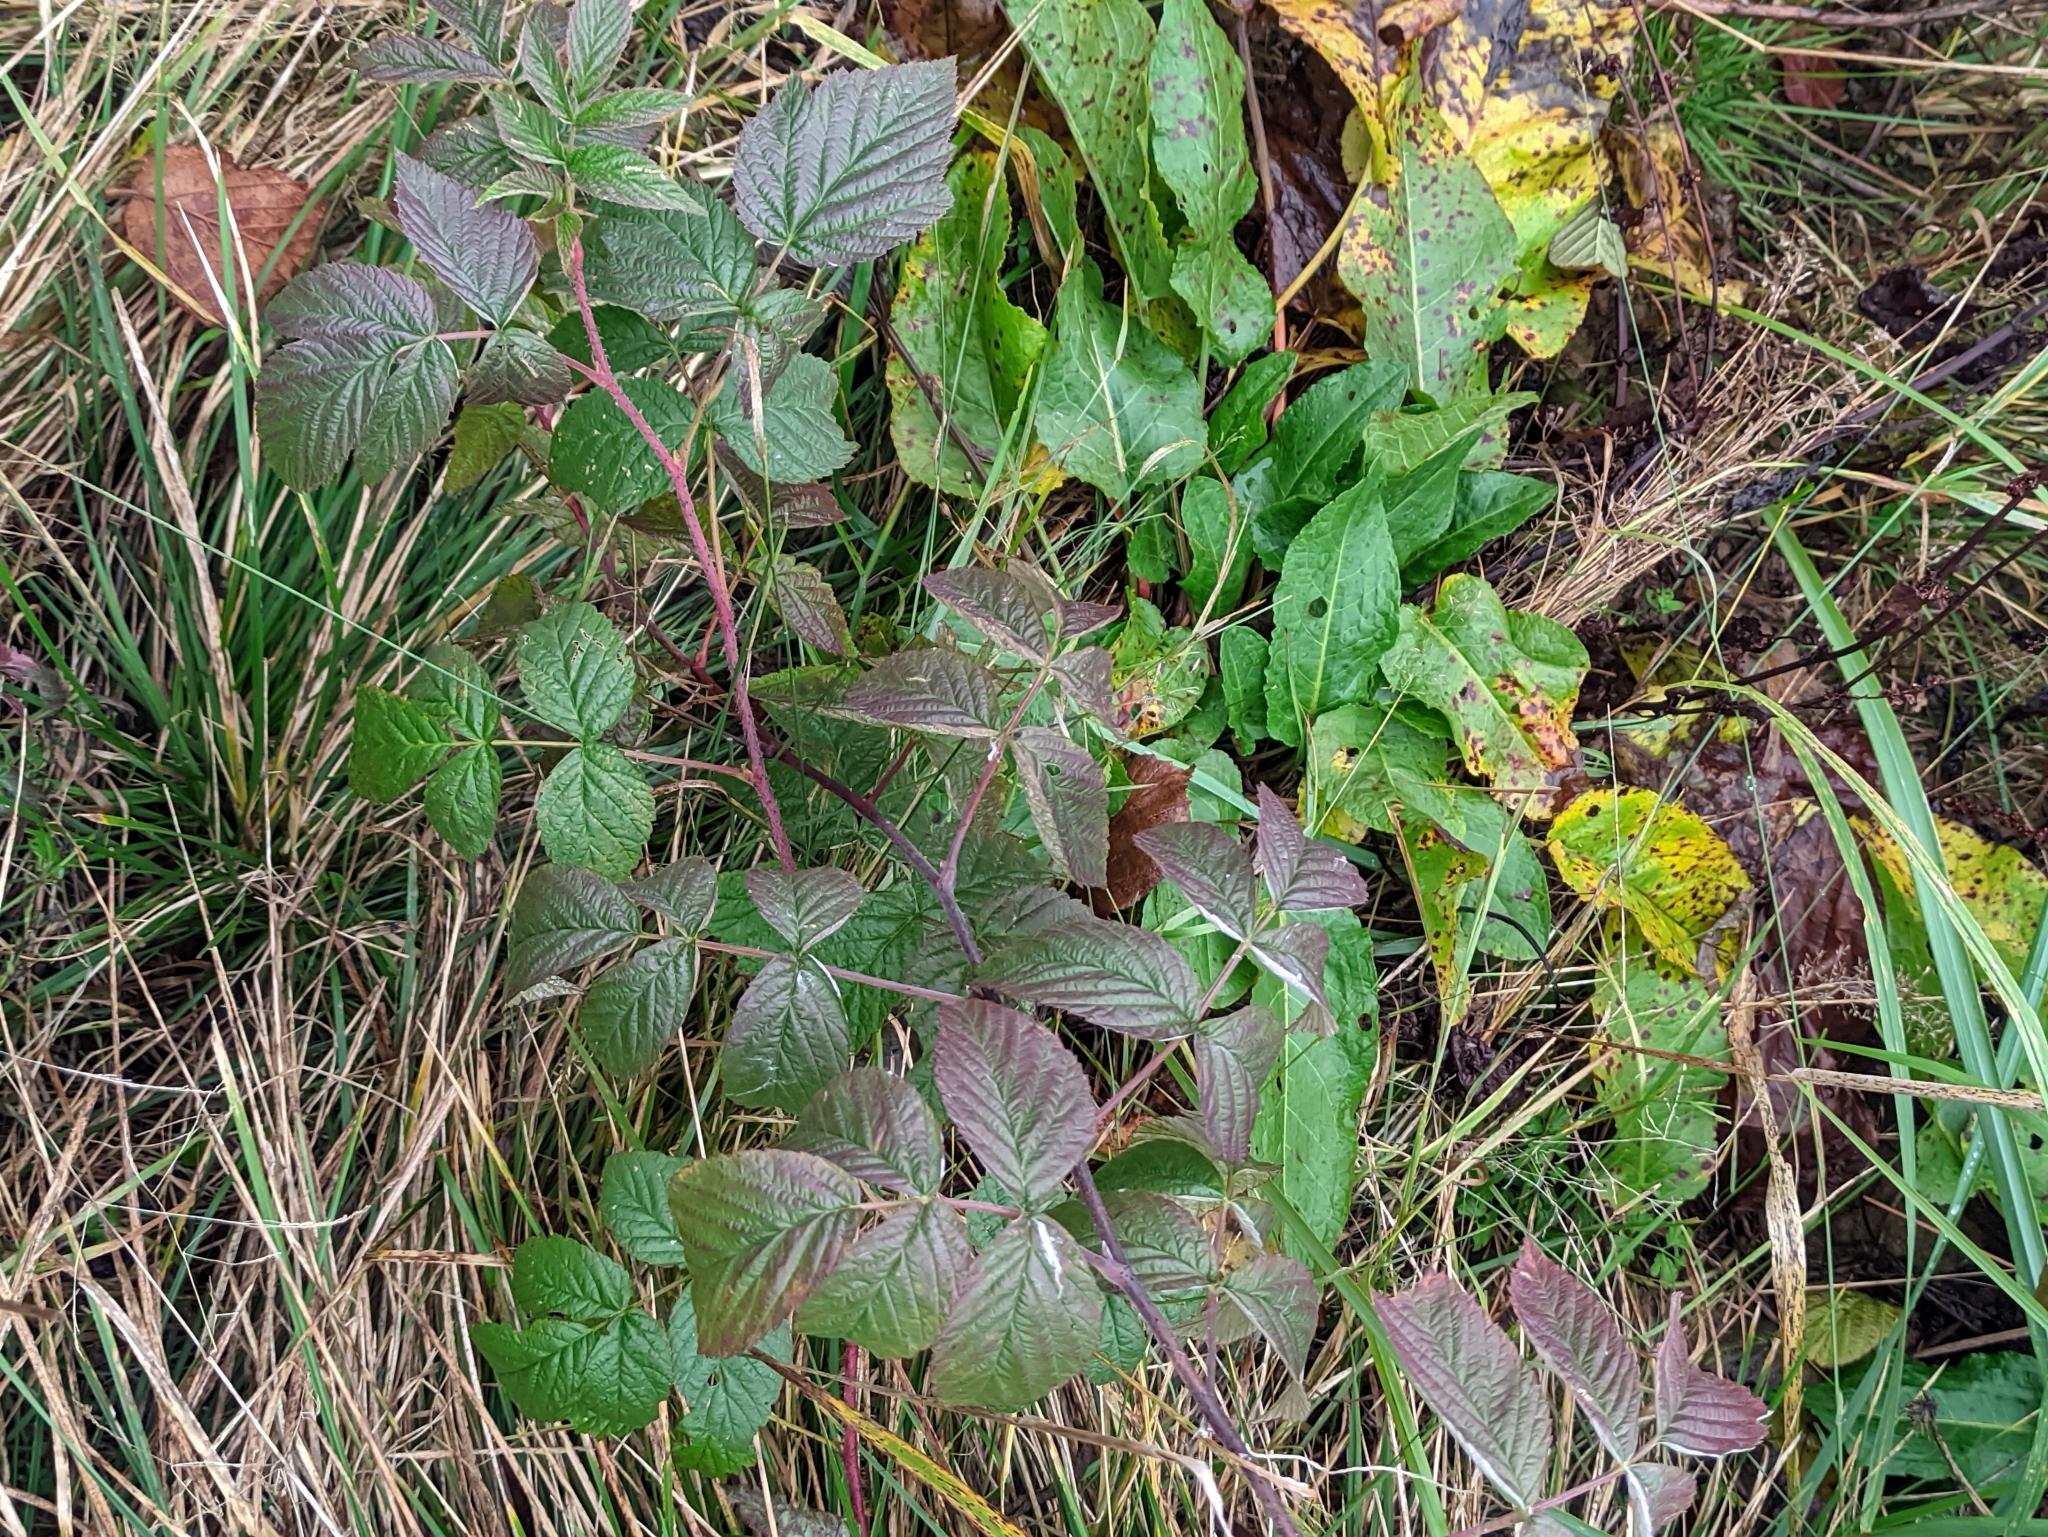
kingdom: Plantae
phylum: Tracheophyta
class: Magnoliopsida
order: Rosales
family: Rosaceae
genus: Rubus
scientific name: Rubus idaeus
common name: Raspberry
